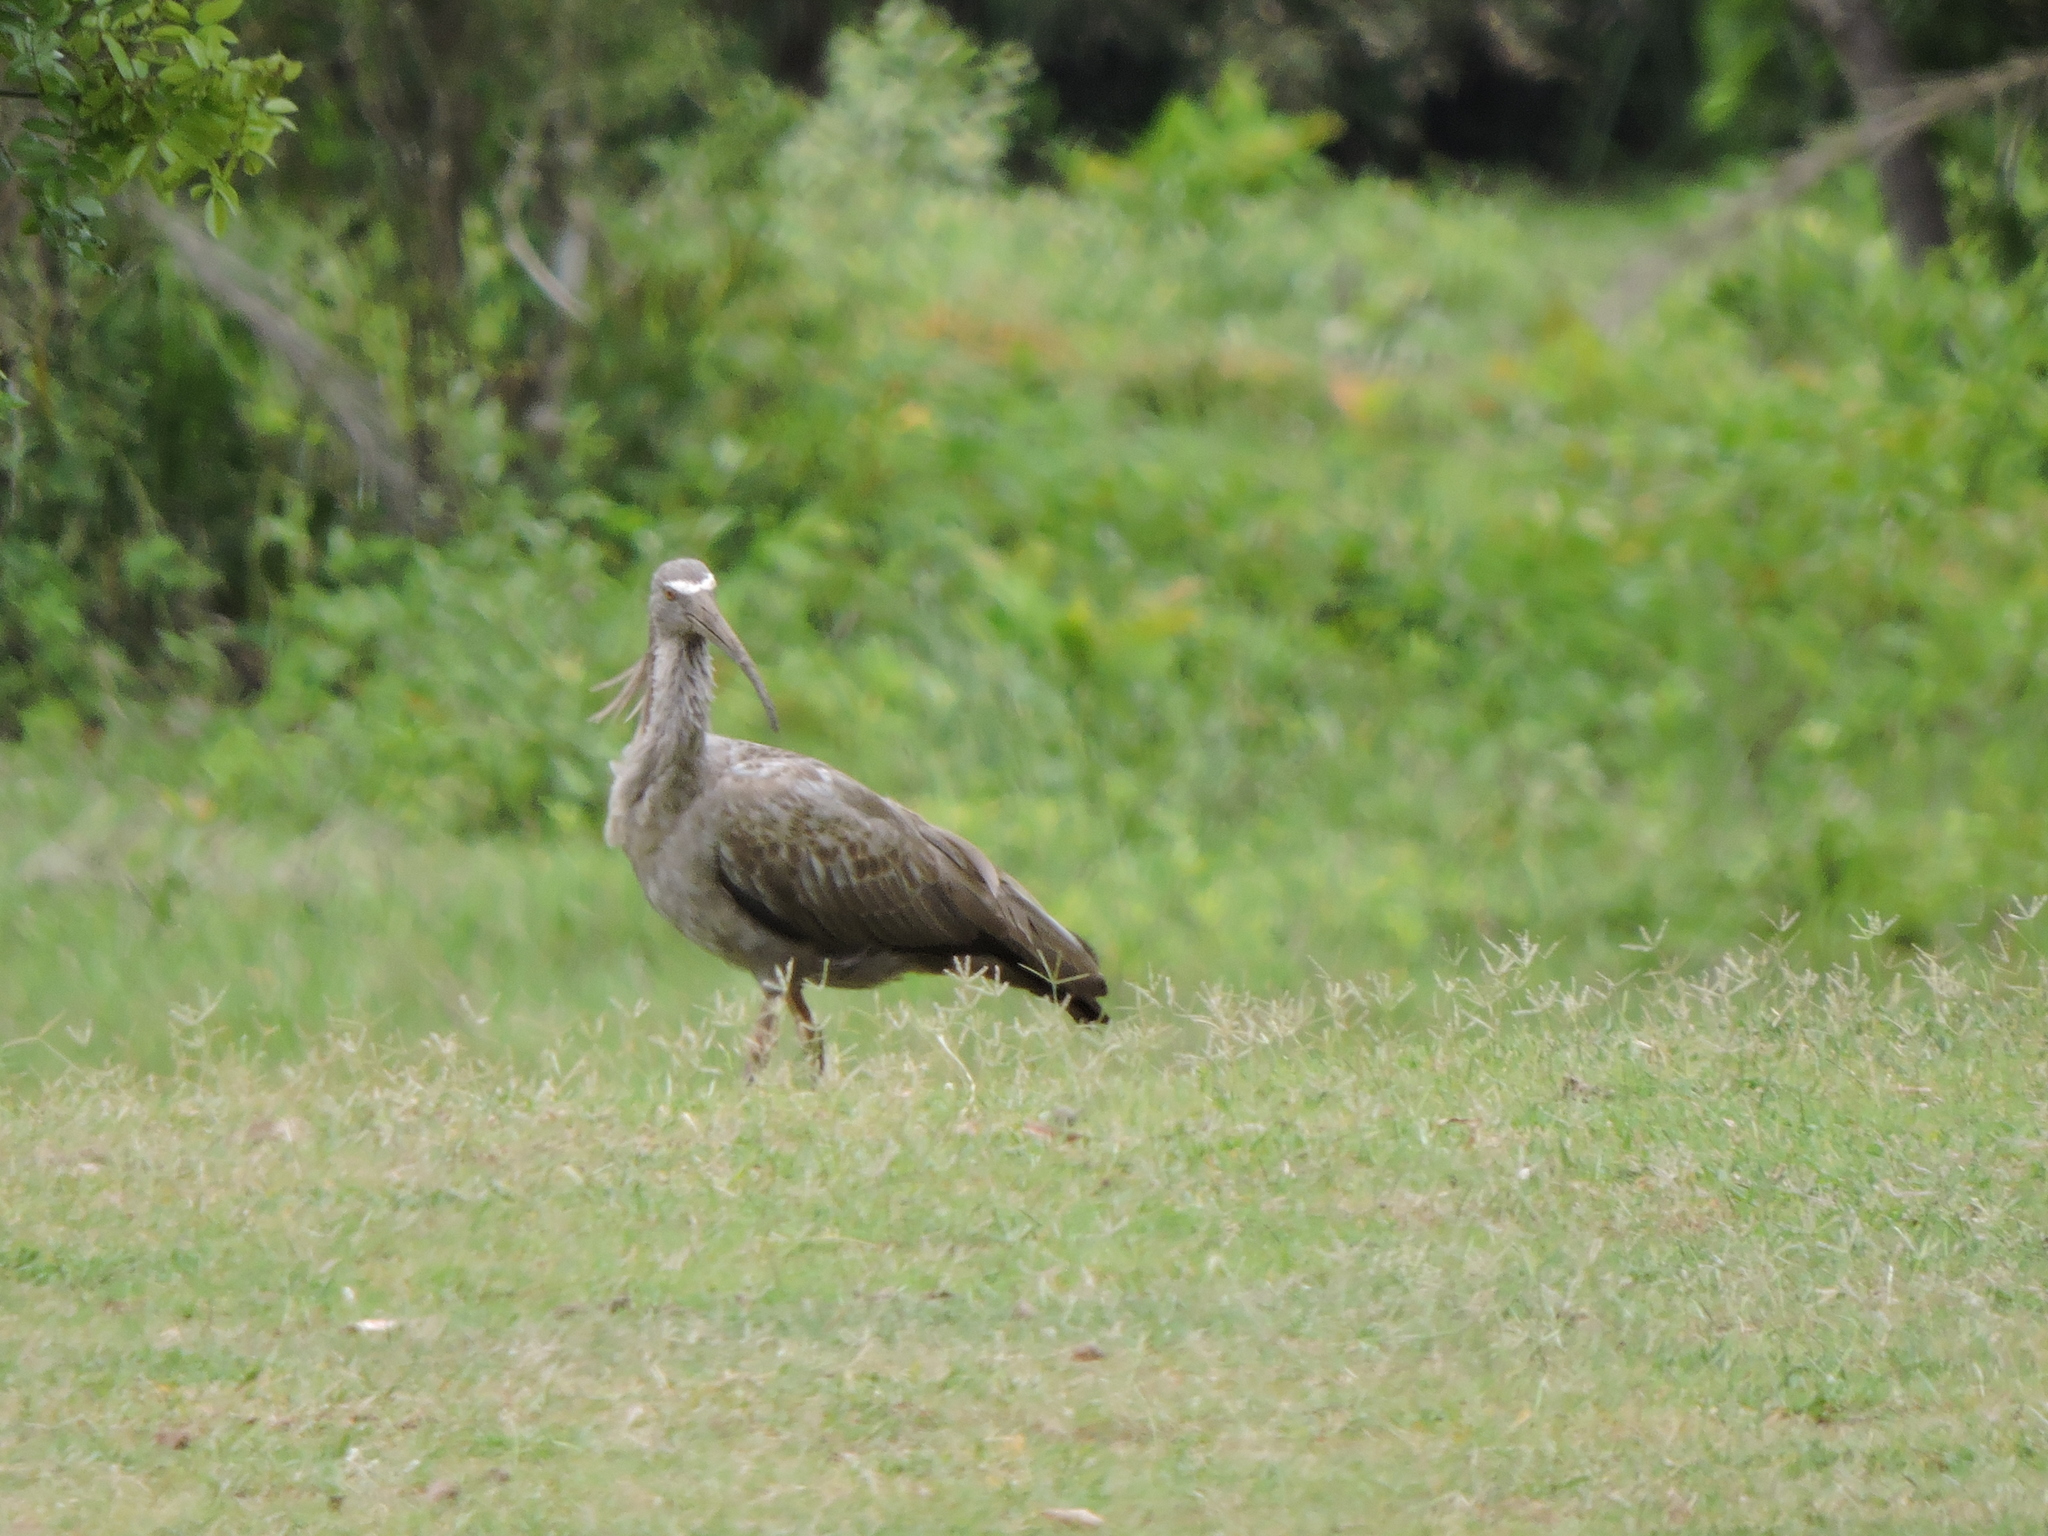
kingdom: Animalia
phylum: Chordata
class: Aves
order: Pelecaniformes
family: Threskiornithidae
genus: Theristicus
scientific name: Theristicus caerulescens
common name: Plumbeous ibis
